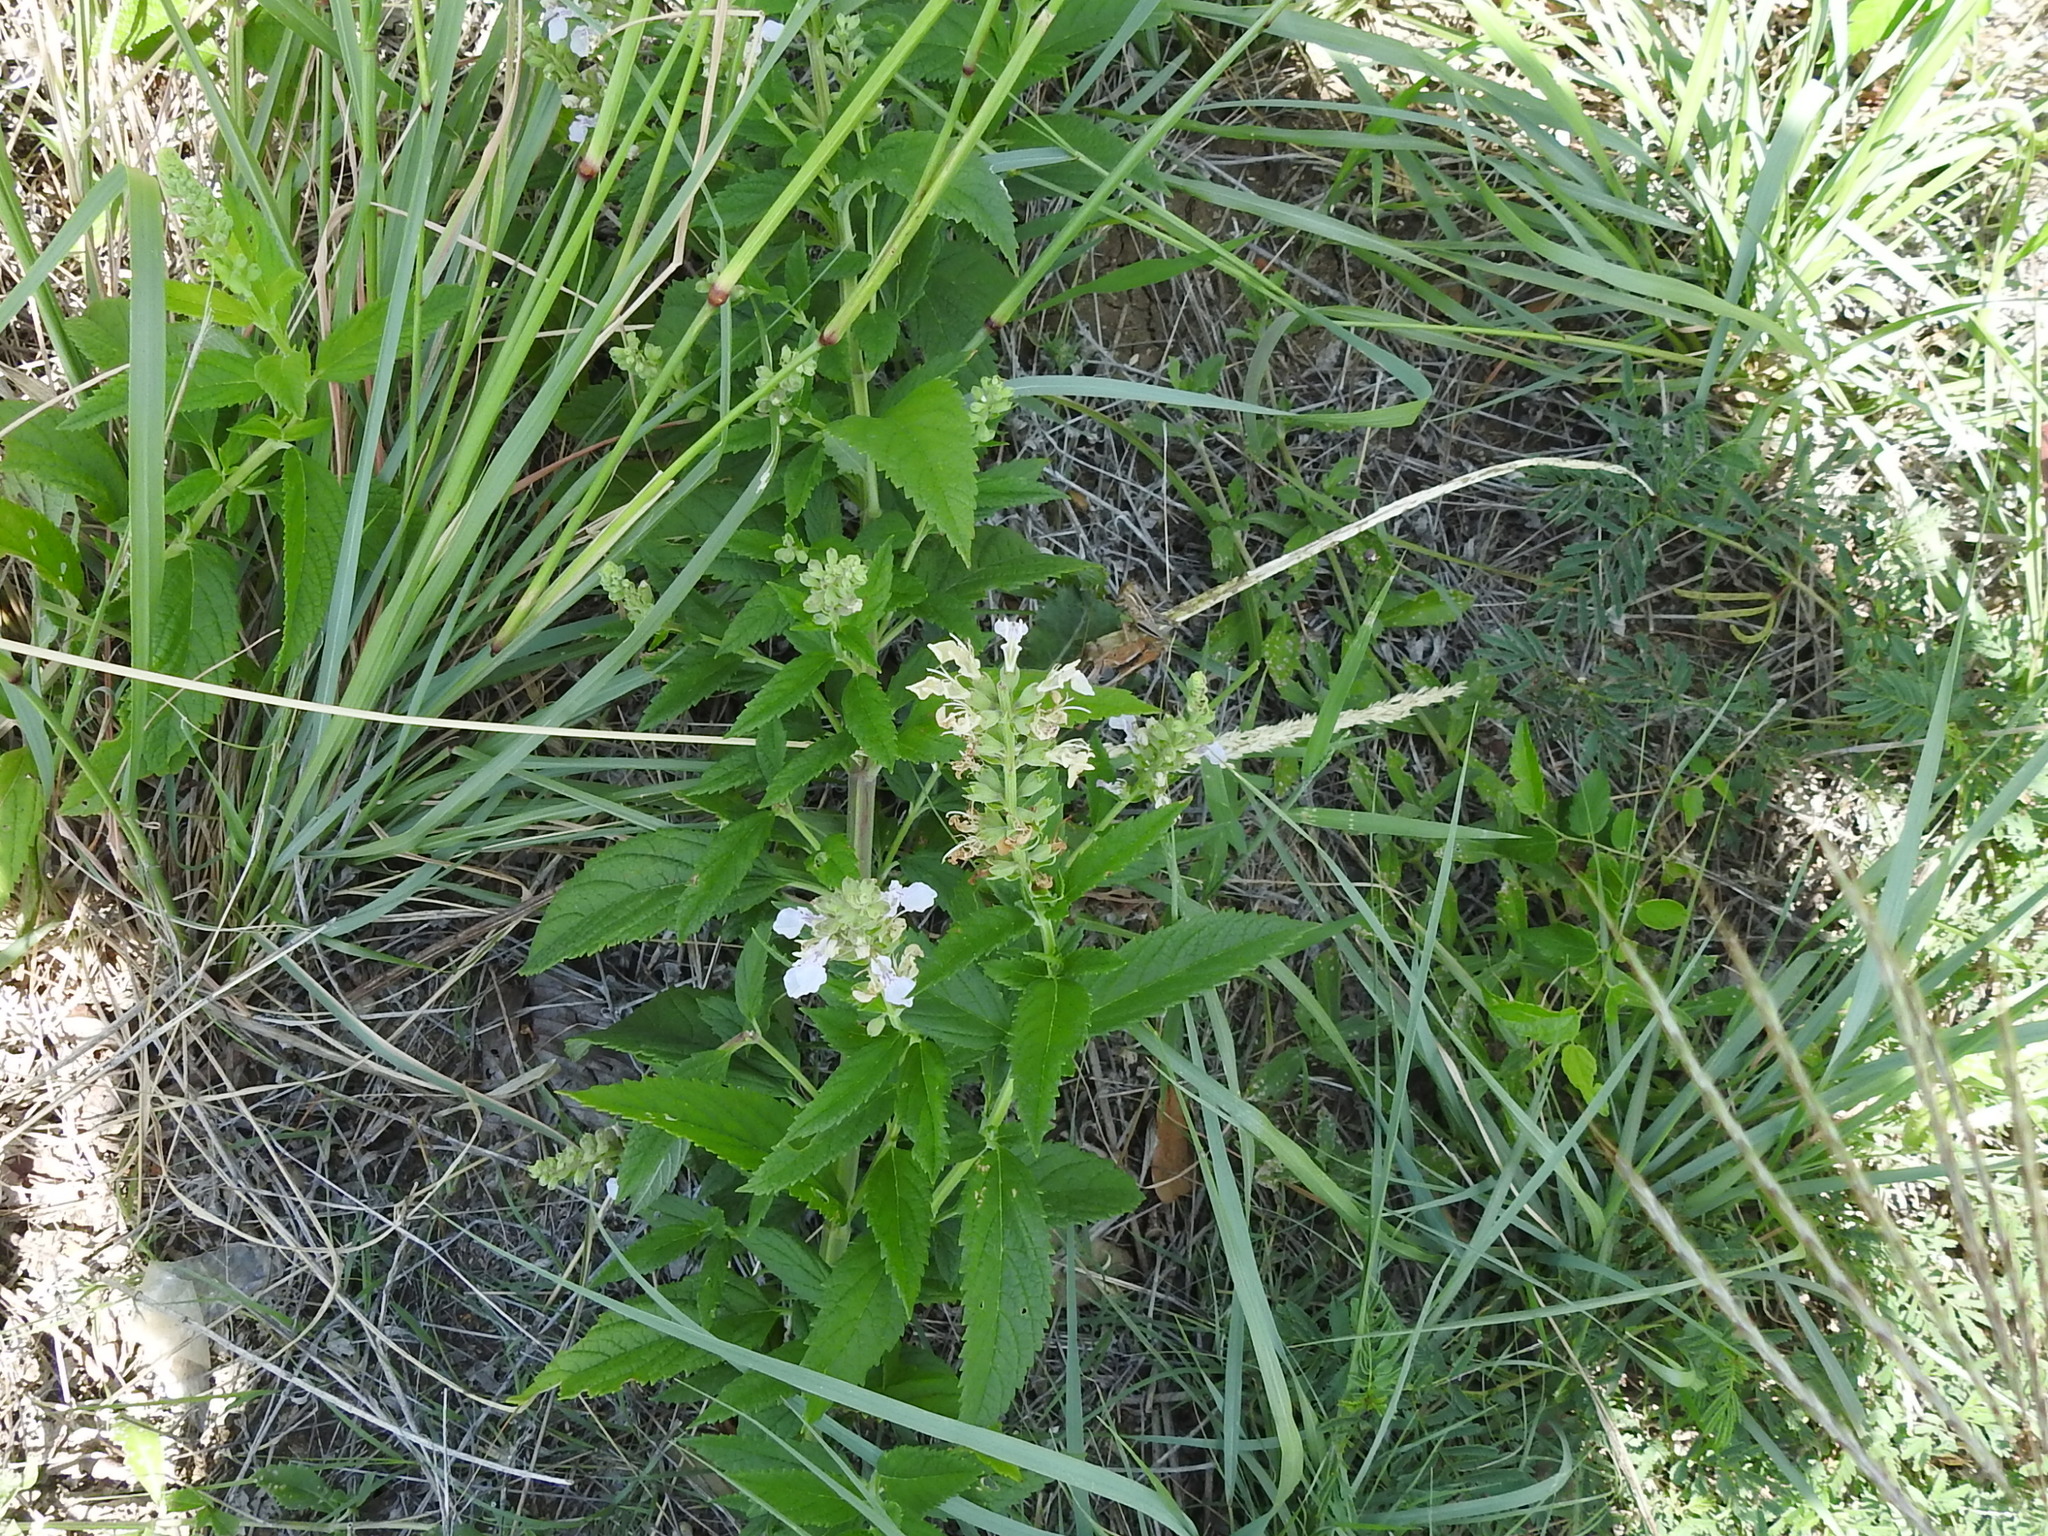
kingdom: Plantae
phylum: Tracheophyta
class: Magnoliopsida
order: Lamiales
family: Lamiaceae
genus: Teucrium
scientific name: Teucrium canadense
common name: American germander
